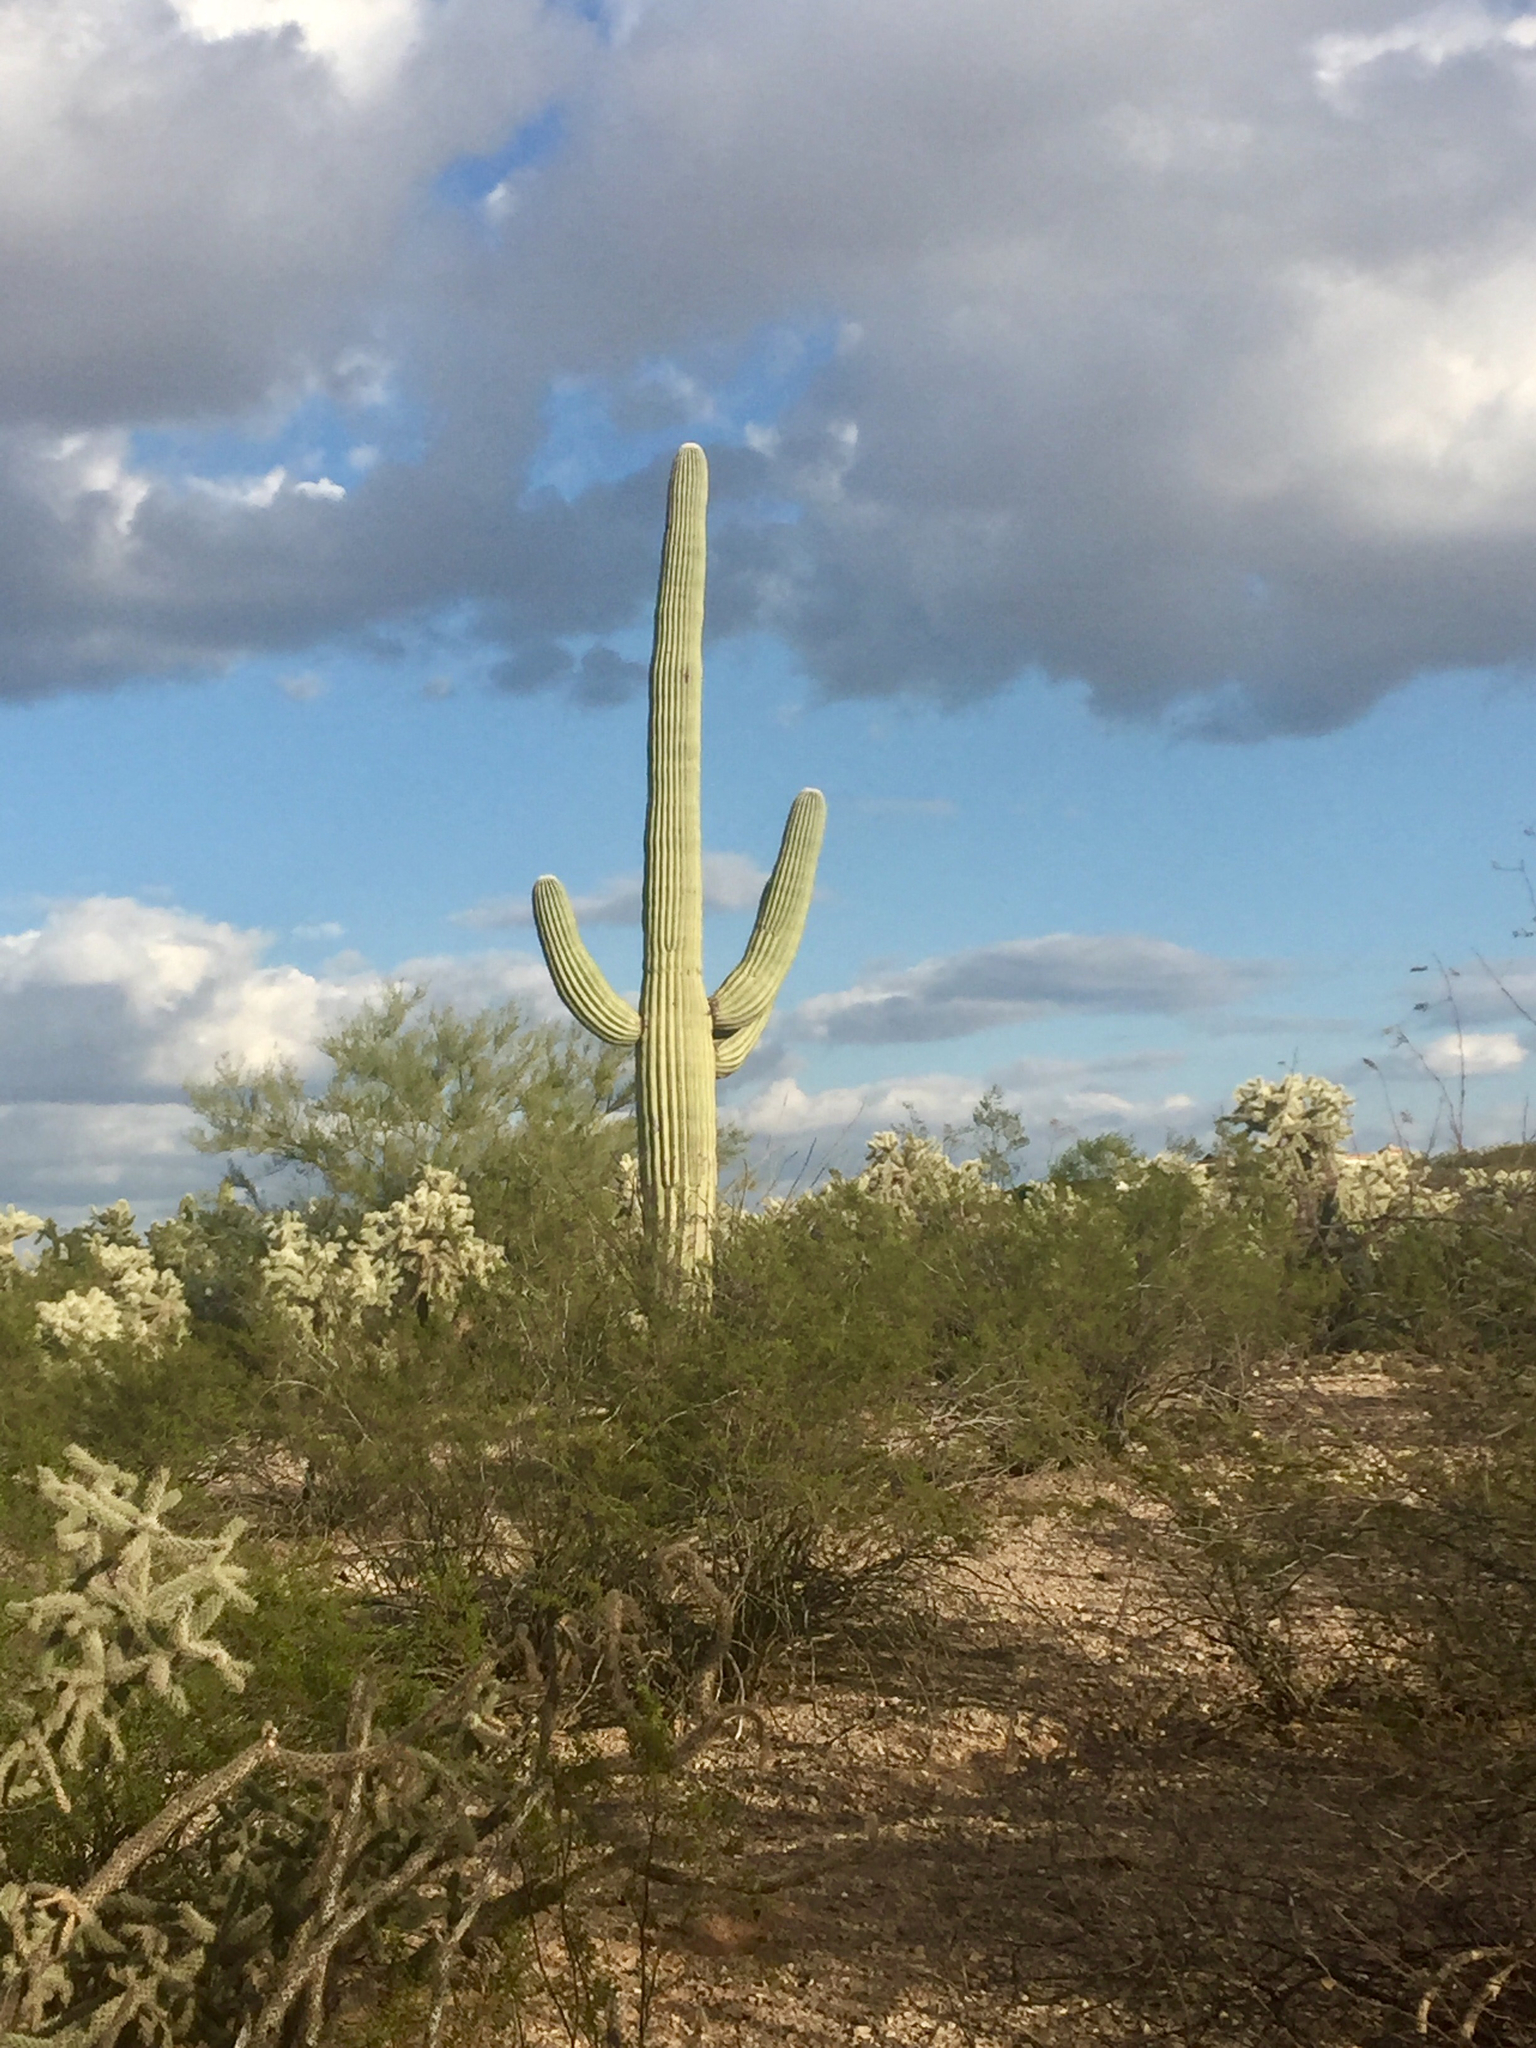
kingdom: Plantae
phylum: Tracheophyta
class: Magnoliopsida
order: Caryophyllales
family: Cactaceae
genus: Carnegiea
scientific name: Carnegiea gigantea
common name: Saguaro
